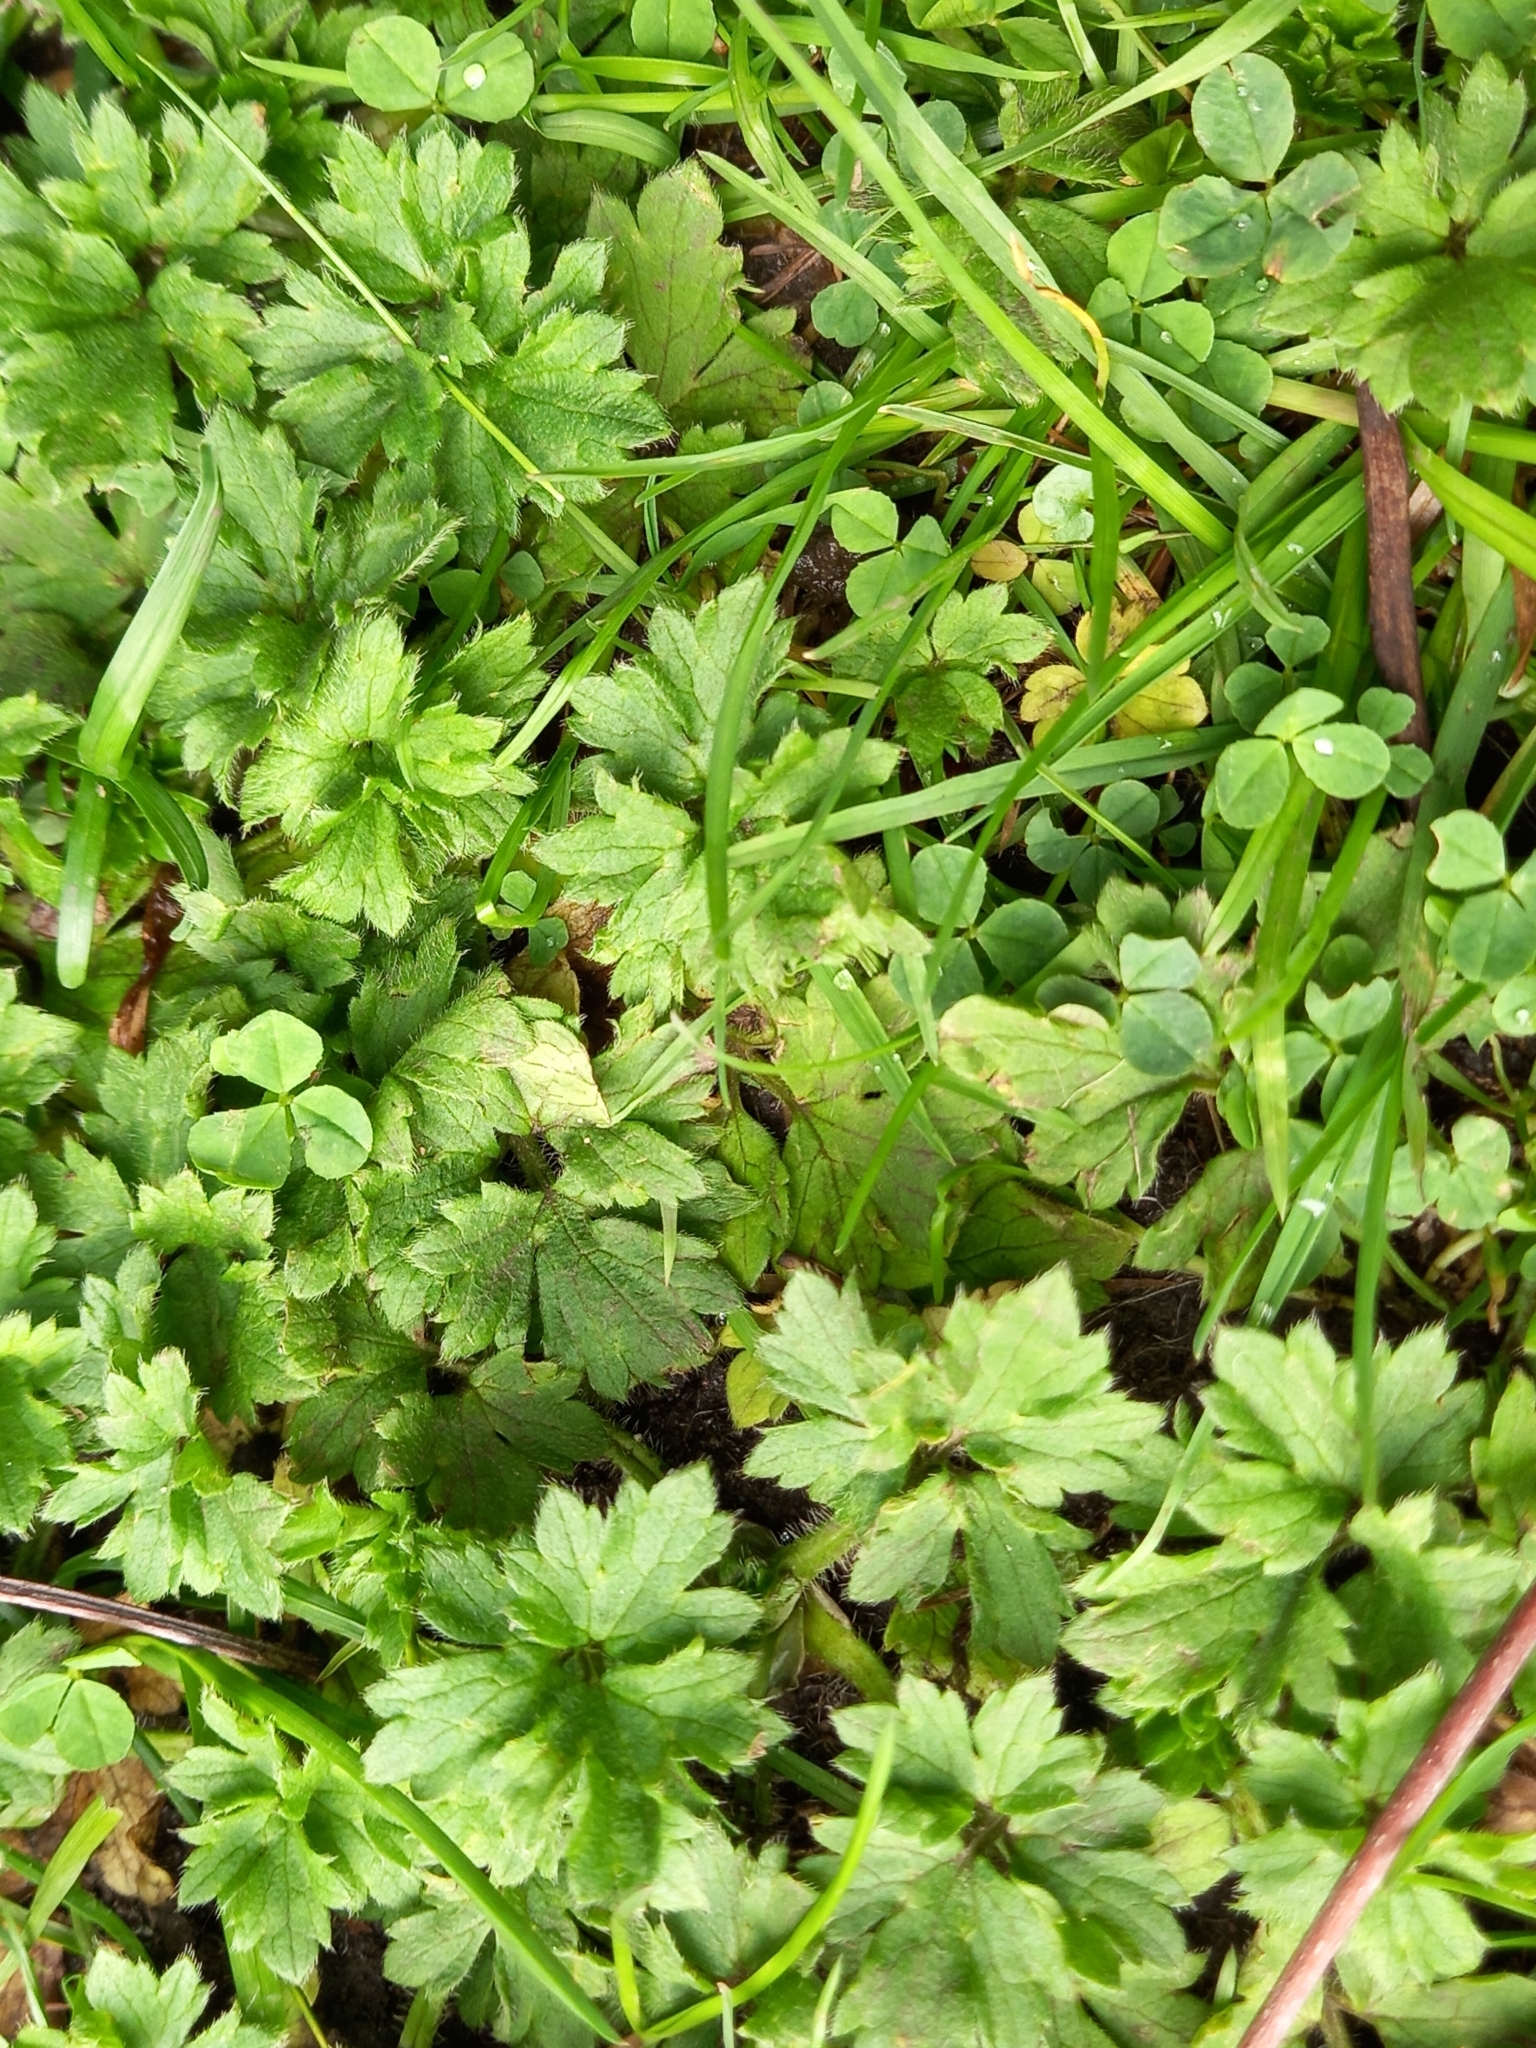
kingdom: Plantae
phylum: Tracheophyta
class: Magnoliopsida
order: Ranunculales
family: Ranunculaceae
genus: Ranunculus
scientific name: Ranunculus repens
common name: Creeping buttercup
